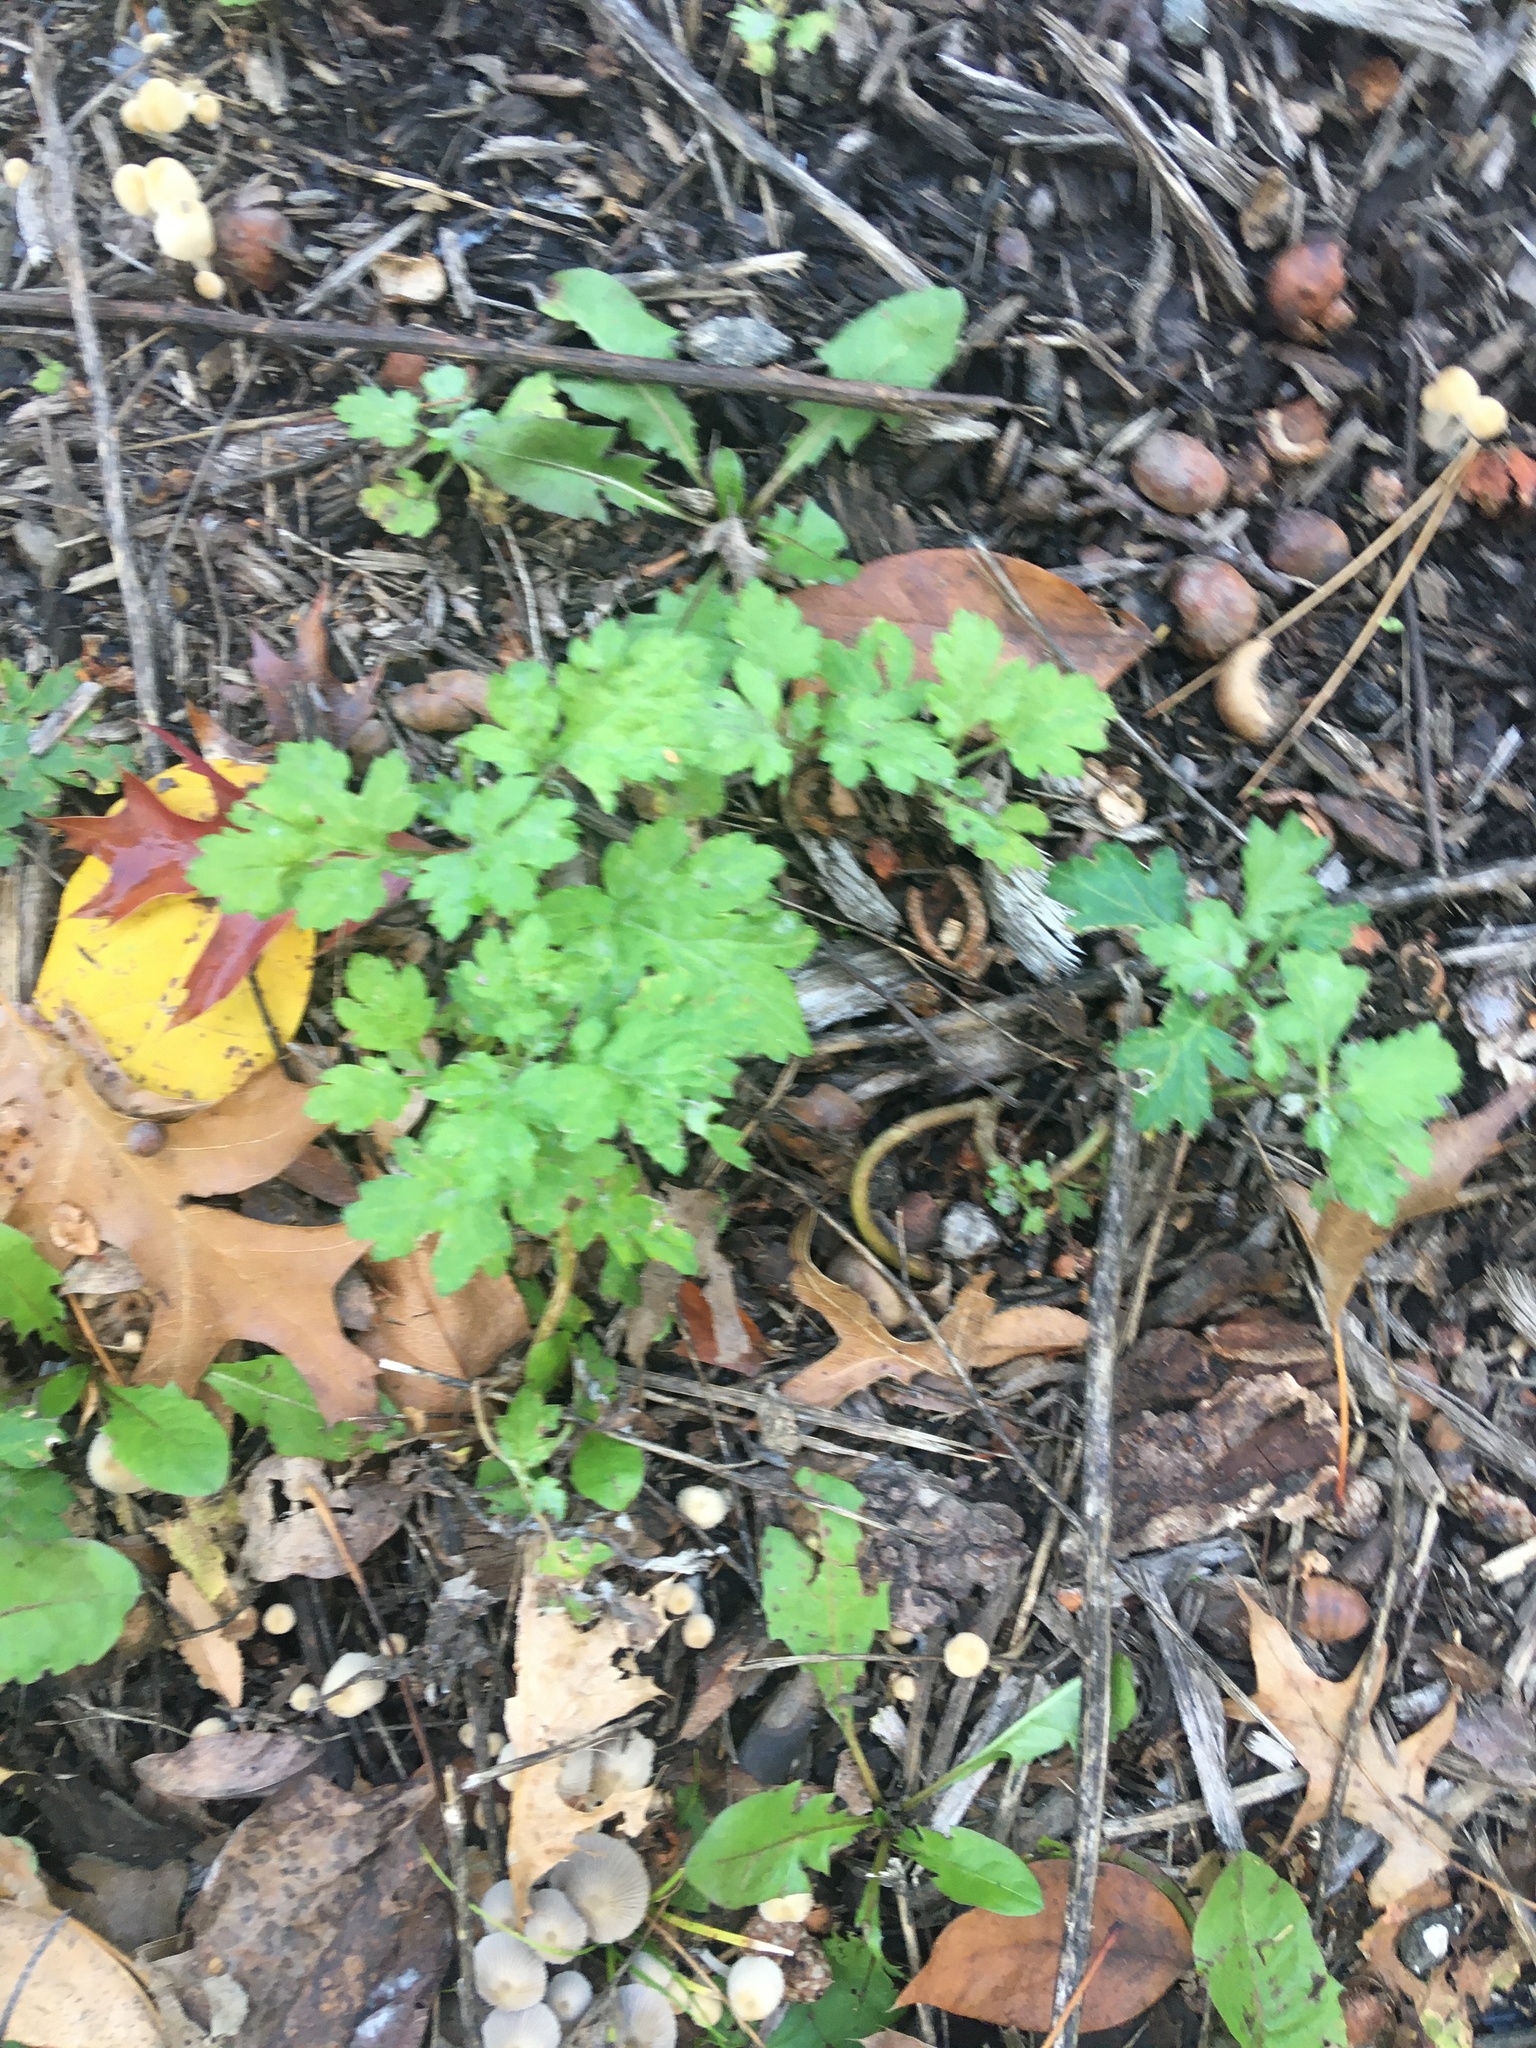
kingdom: Plantae
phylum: Tracheophyta
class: Magnoliopsida
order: Asterales
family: Asteraceae
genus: Artemisia
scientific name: Artemisia vulgaris
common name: Mugwort
